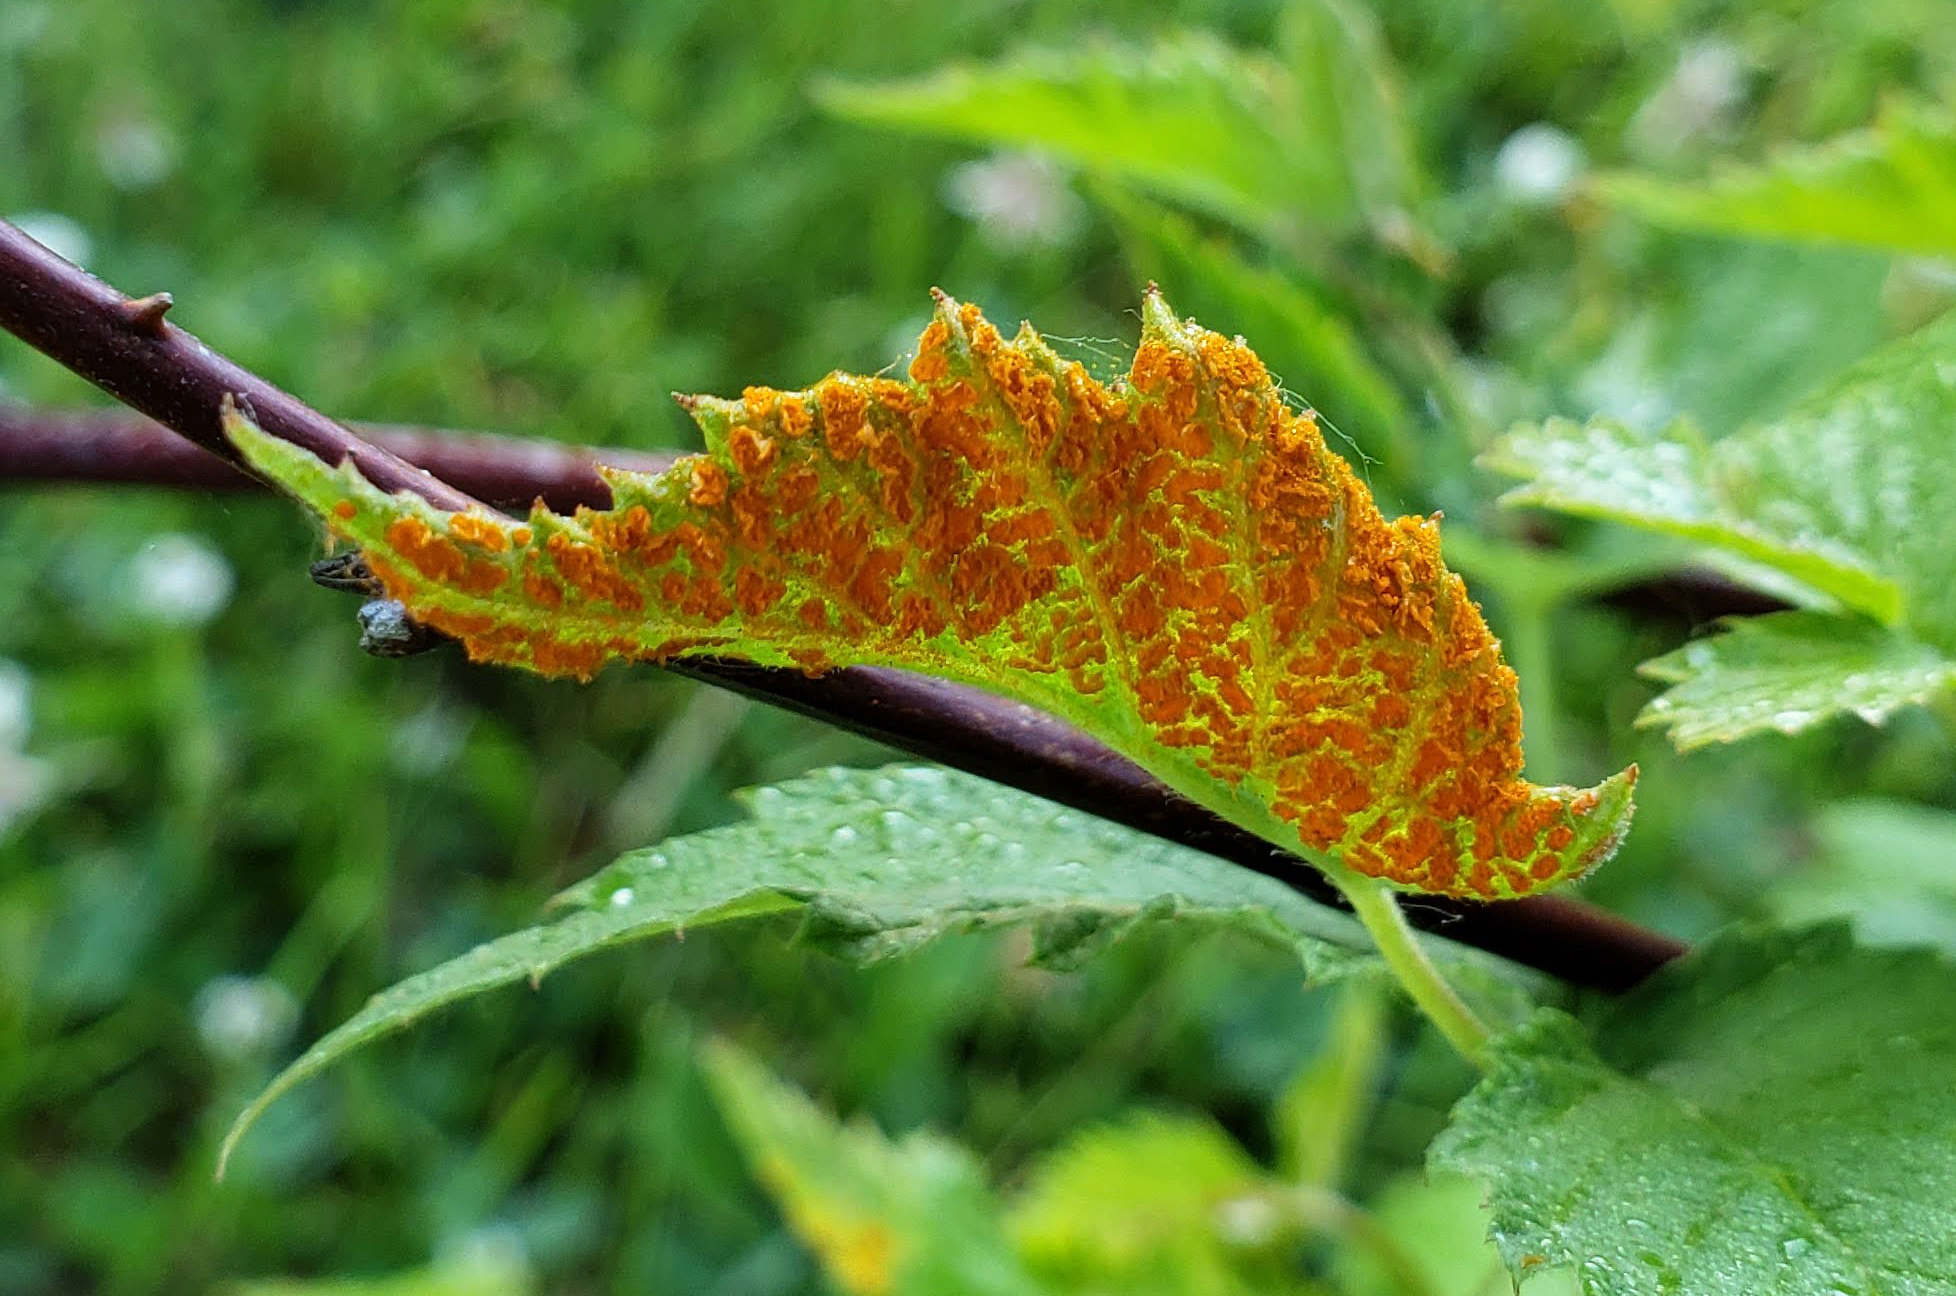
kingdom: Fungi
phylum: Basidiomycota
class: Pucciniomycetes
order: Pucciniales
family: Phragmidiaceae
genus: Arthuriomyces
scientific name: Arthuriomyces peckianus
